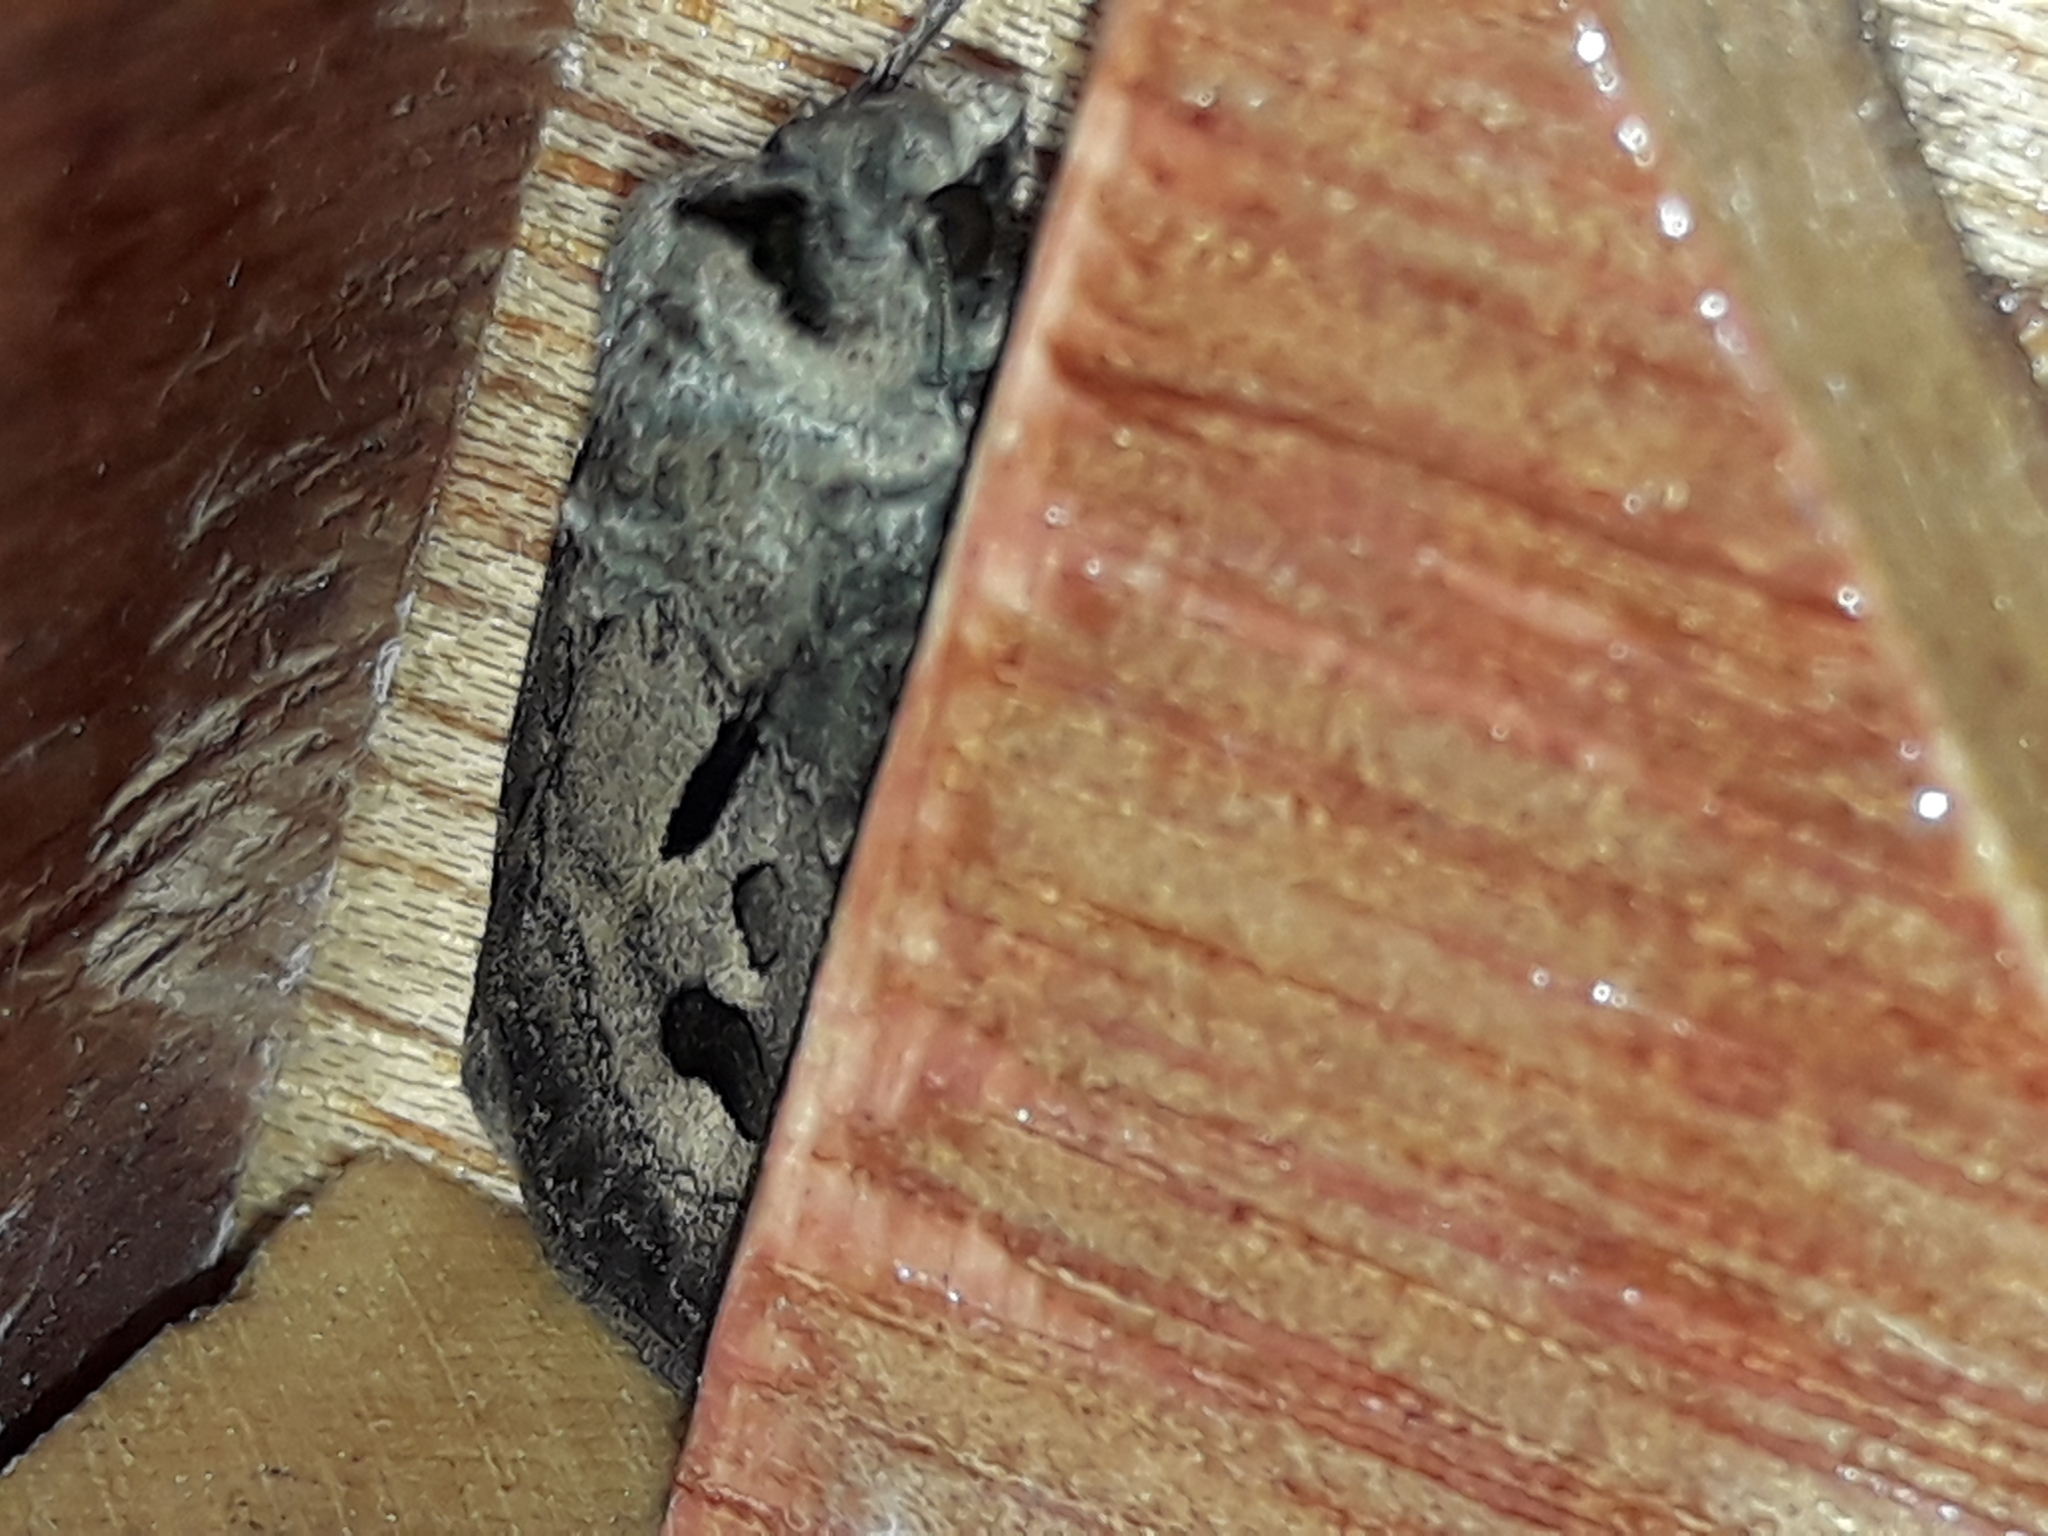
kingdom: Animalia
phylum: Arthropoda
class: Insecta
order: Lepidoptera
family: Noctuidae
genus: Agrotis
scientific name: Agrotis exclamationis
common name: Heart and dart
